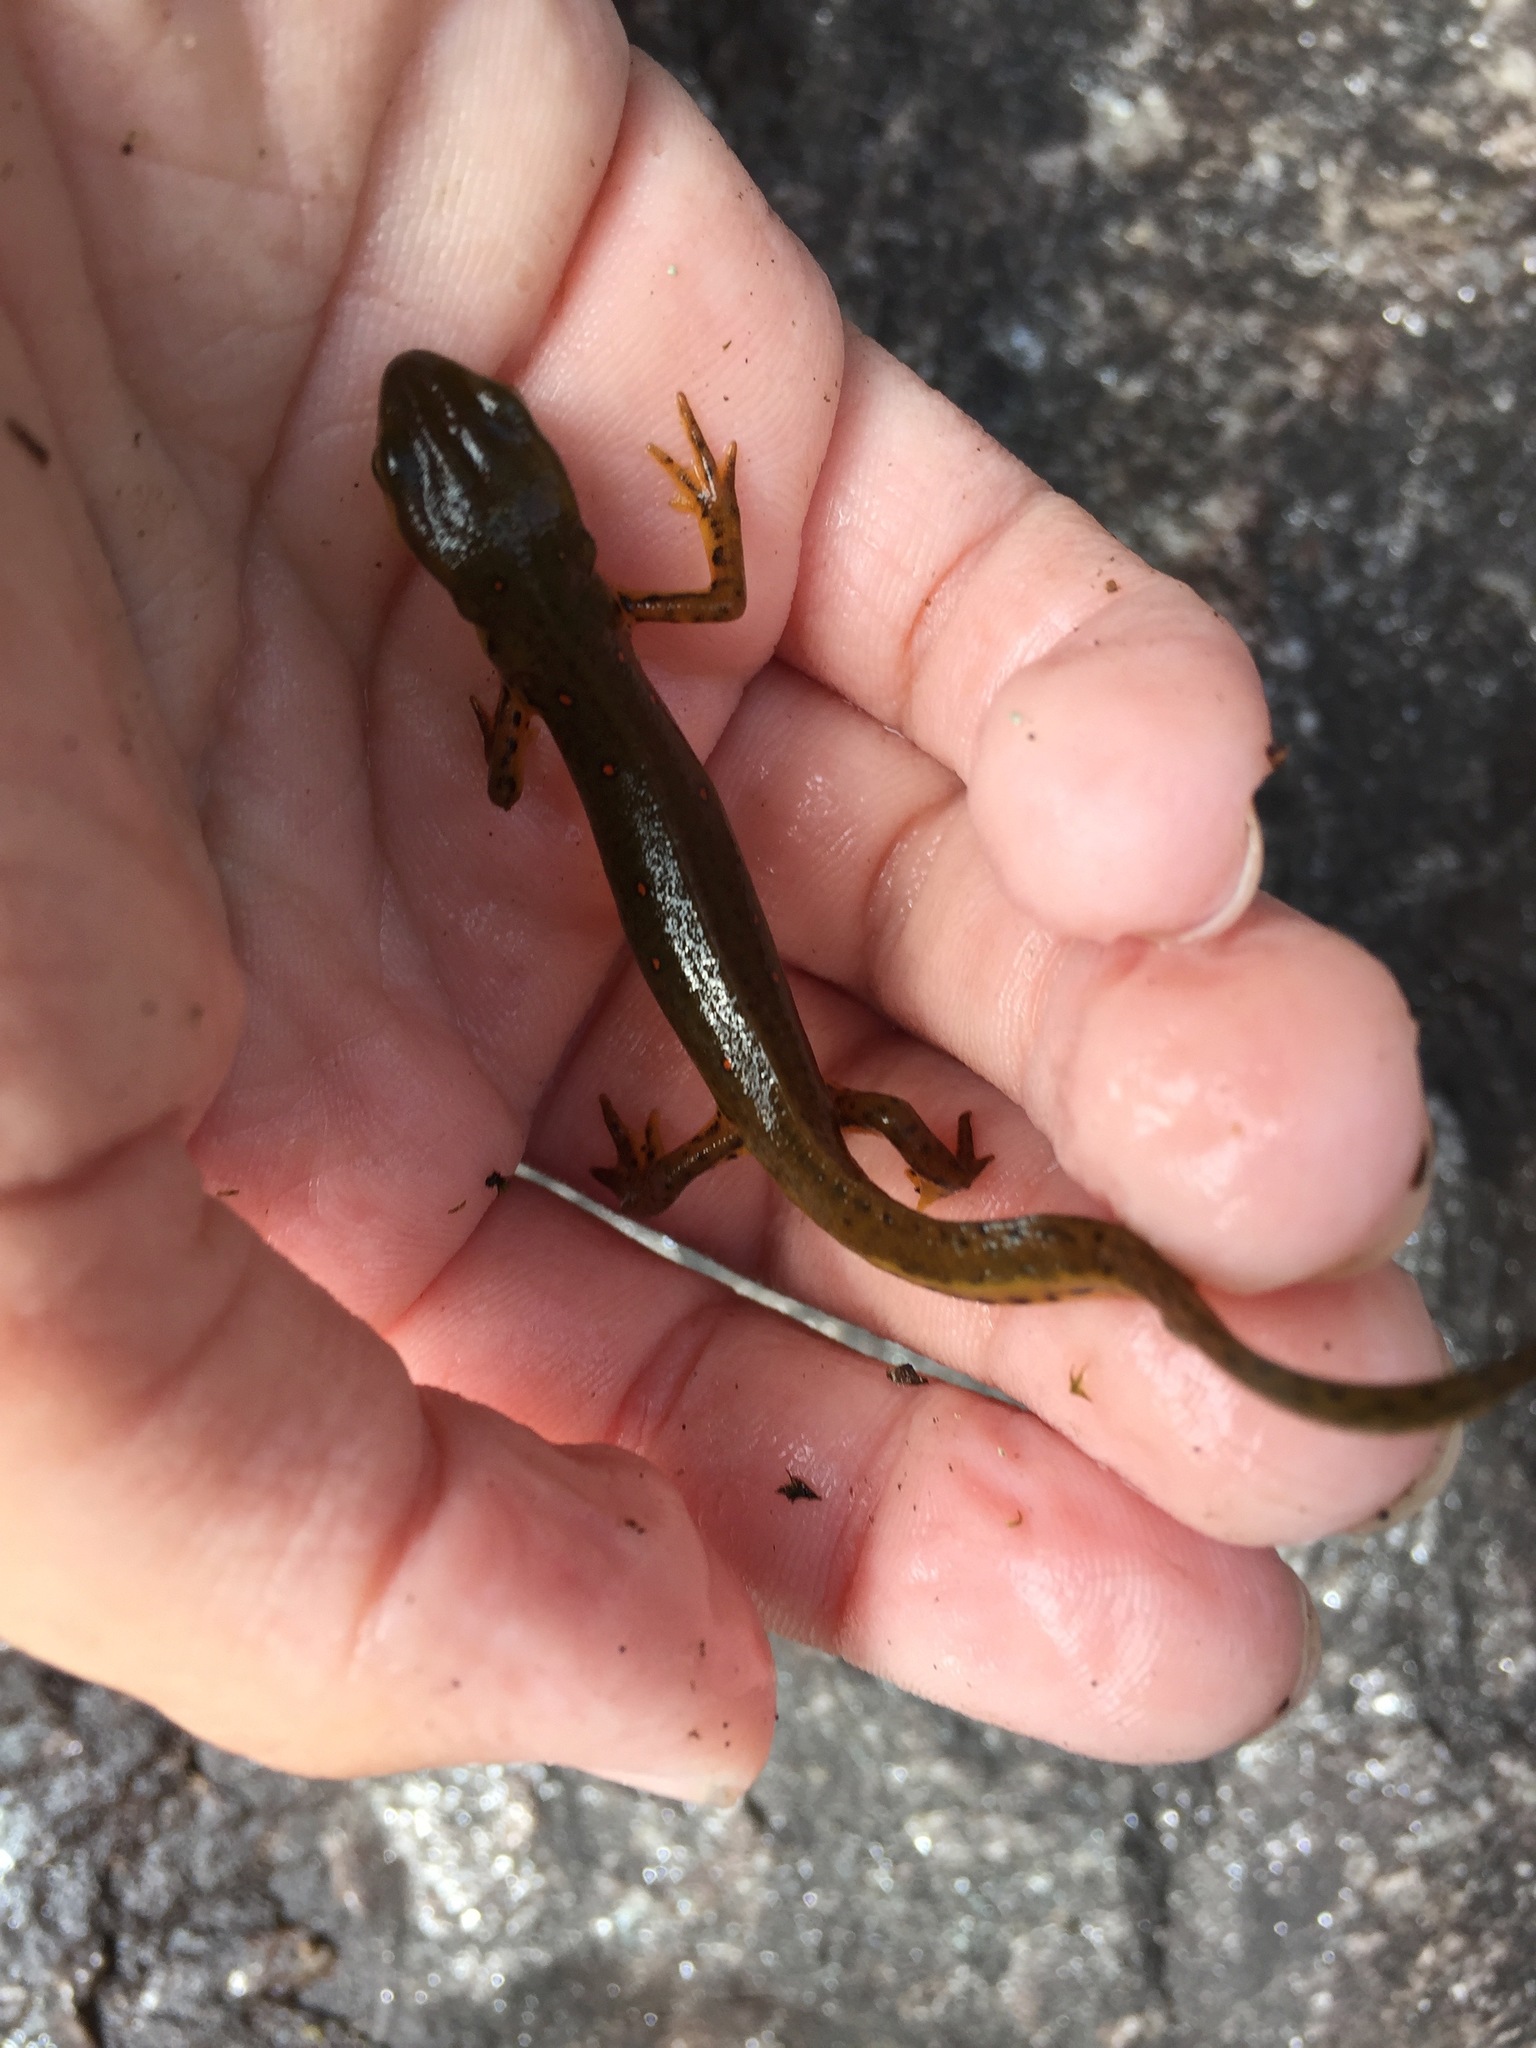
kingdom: Animalia
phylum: Chordata
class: Amphibia
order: Caudata
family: Salamandridae
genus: Notophthalmus
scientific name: Notophthalmus viridescens
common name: Eastern newt
